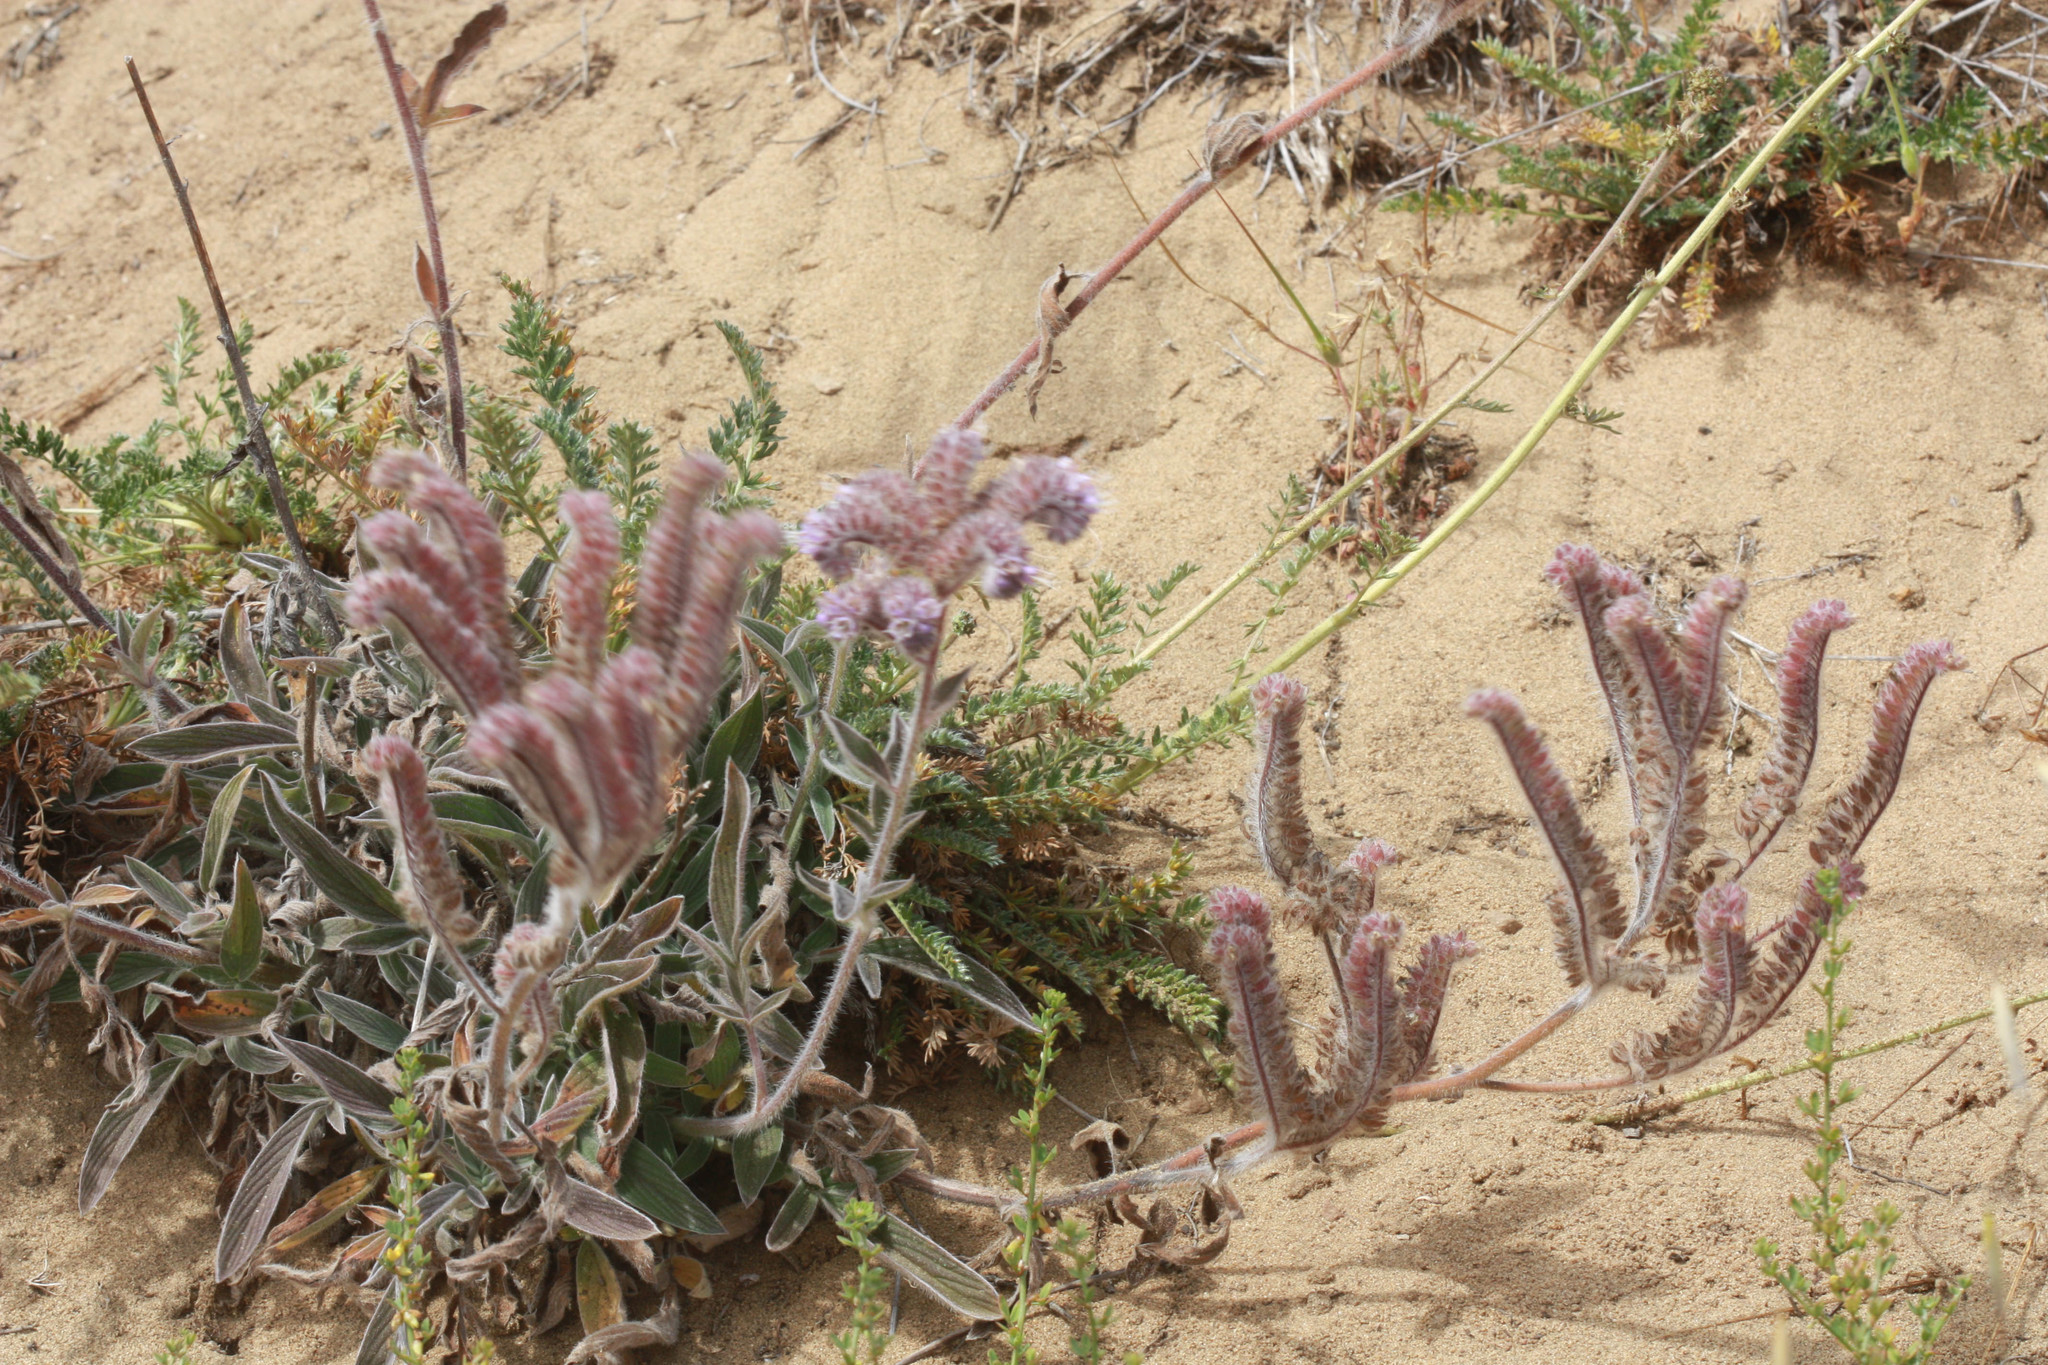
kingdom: Plantae
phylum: Tracheophyta
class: Magnoliopsida
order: Boraginales
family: Hydrophyllaceae
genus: Phacelia
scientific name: Phacelia californica
